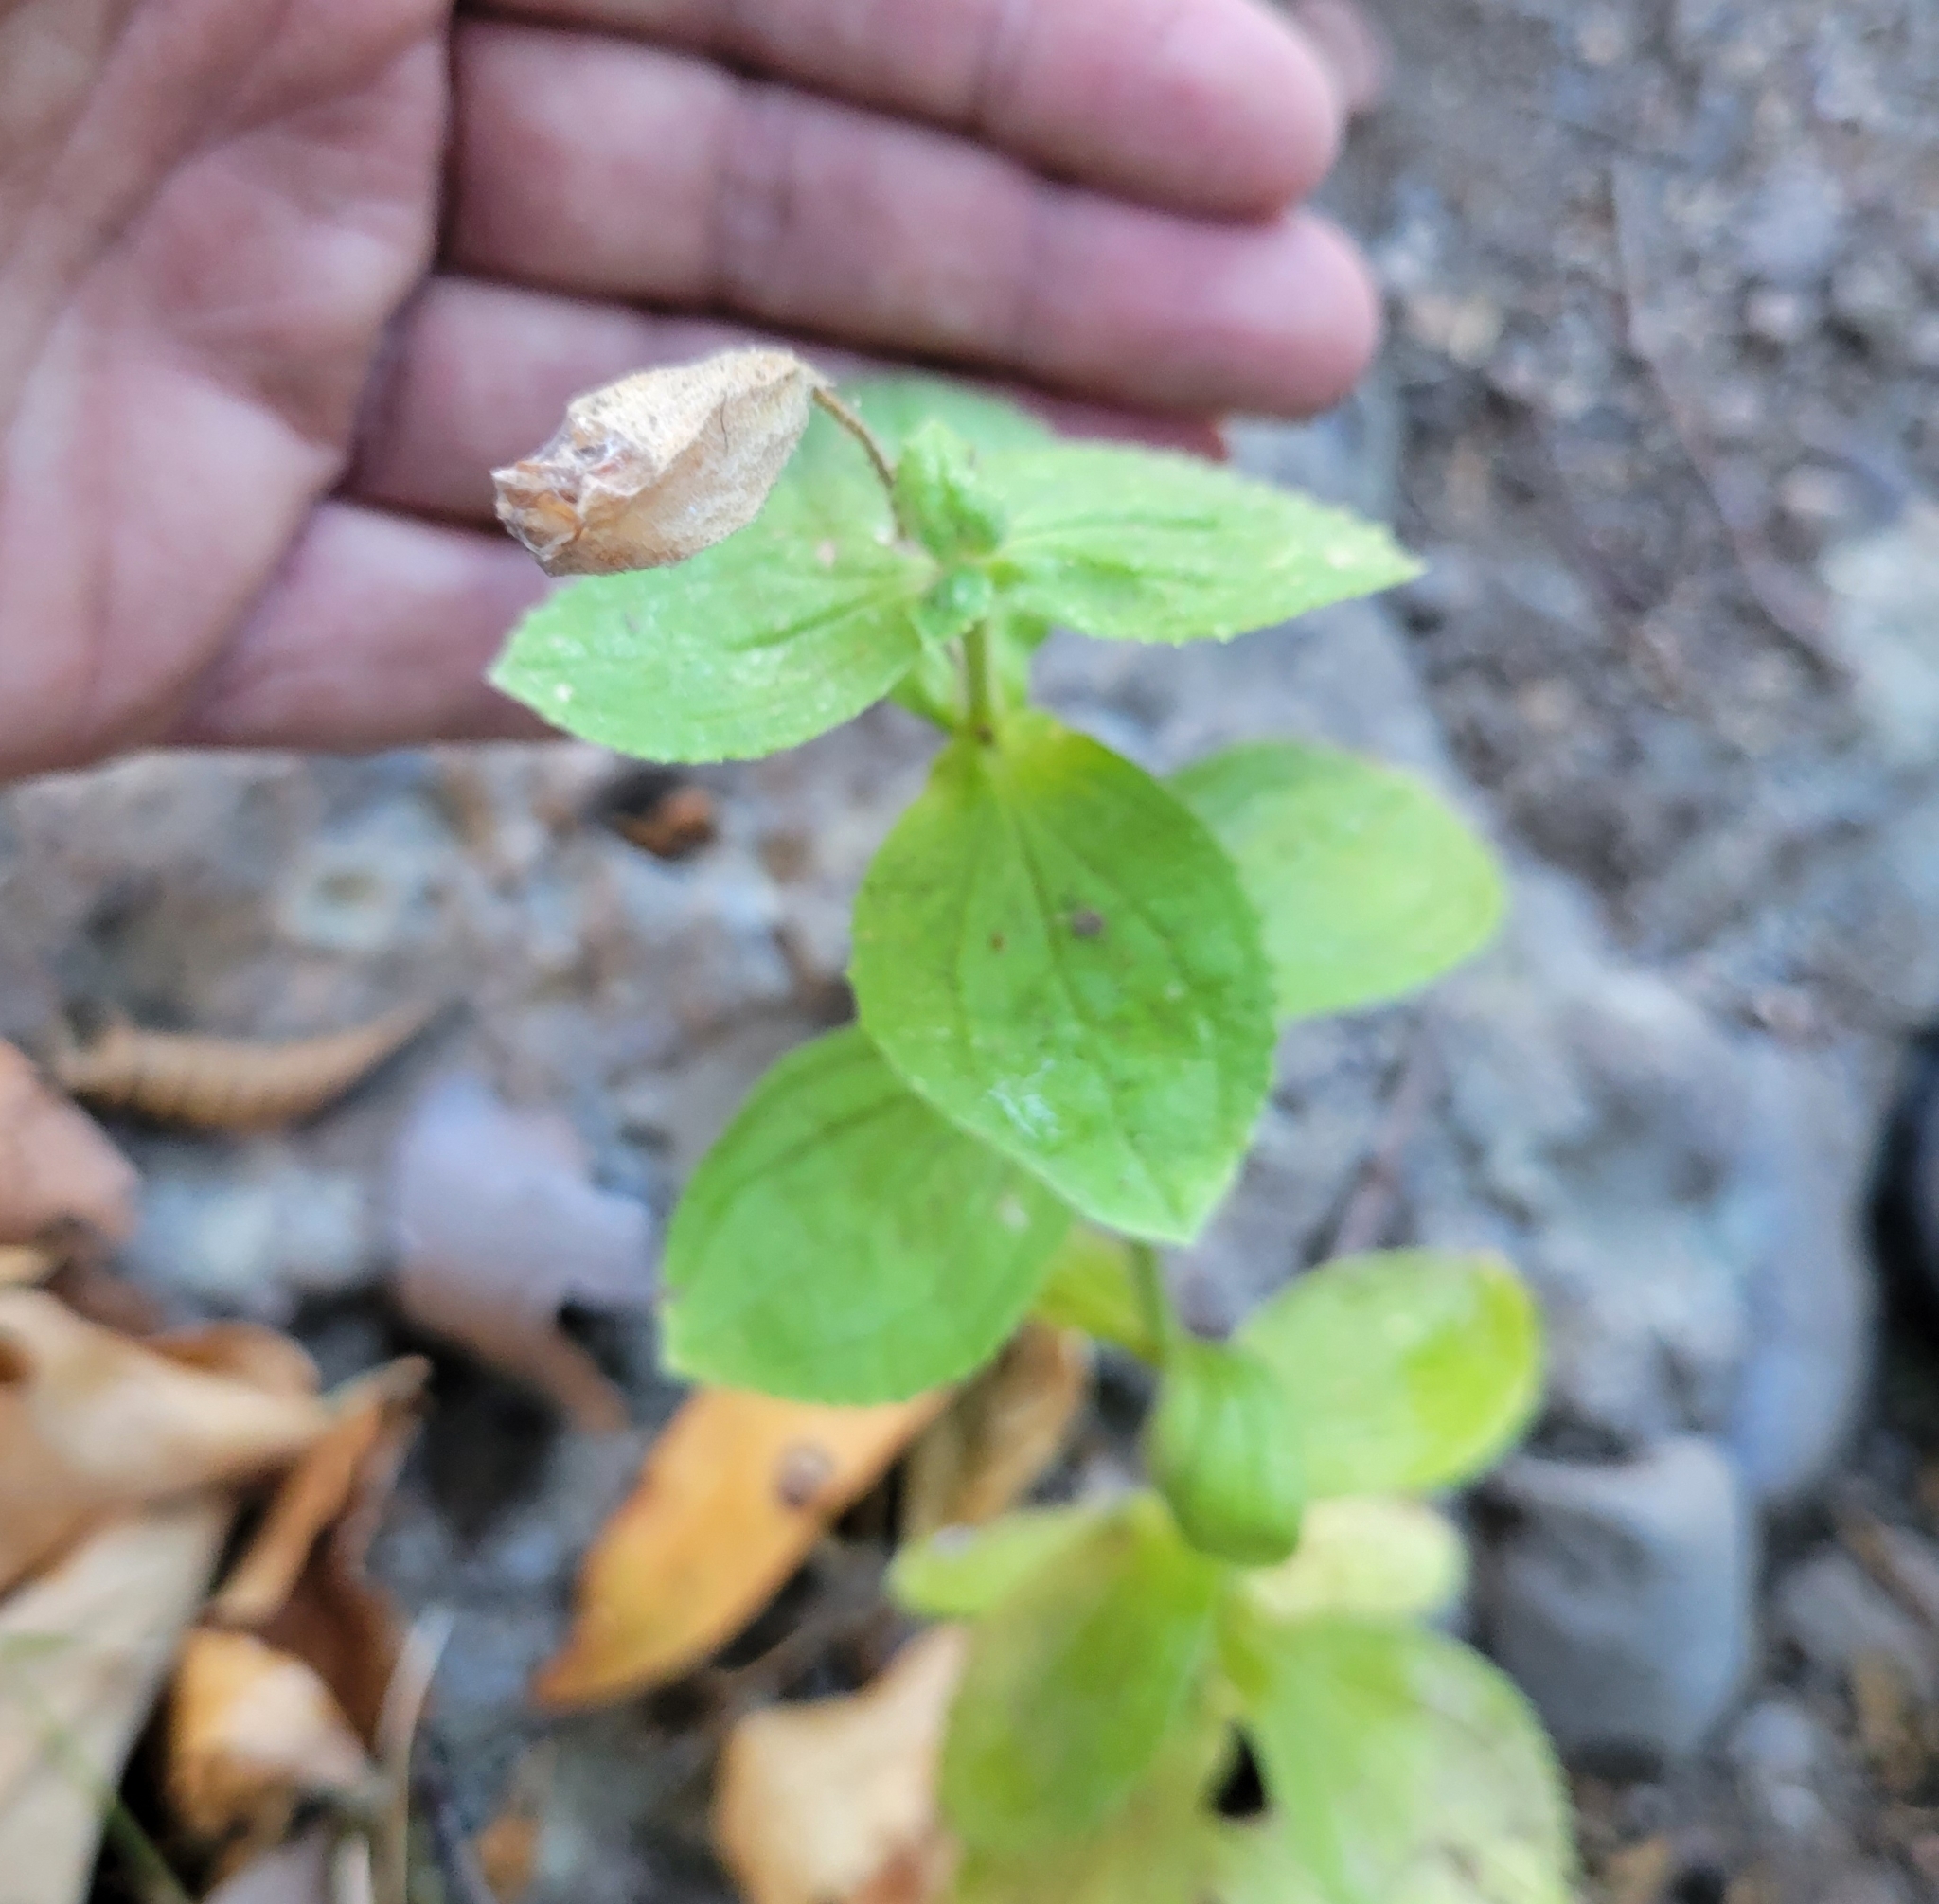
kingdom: Plantae
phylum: Tracheophyta
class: Magnoliopsida
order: Lamiales
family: Phrymaceae
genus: Erythranthe
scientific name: Erythranthe cardinalis
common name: Scarlet monkey-flower
